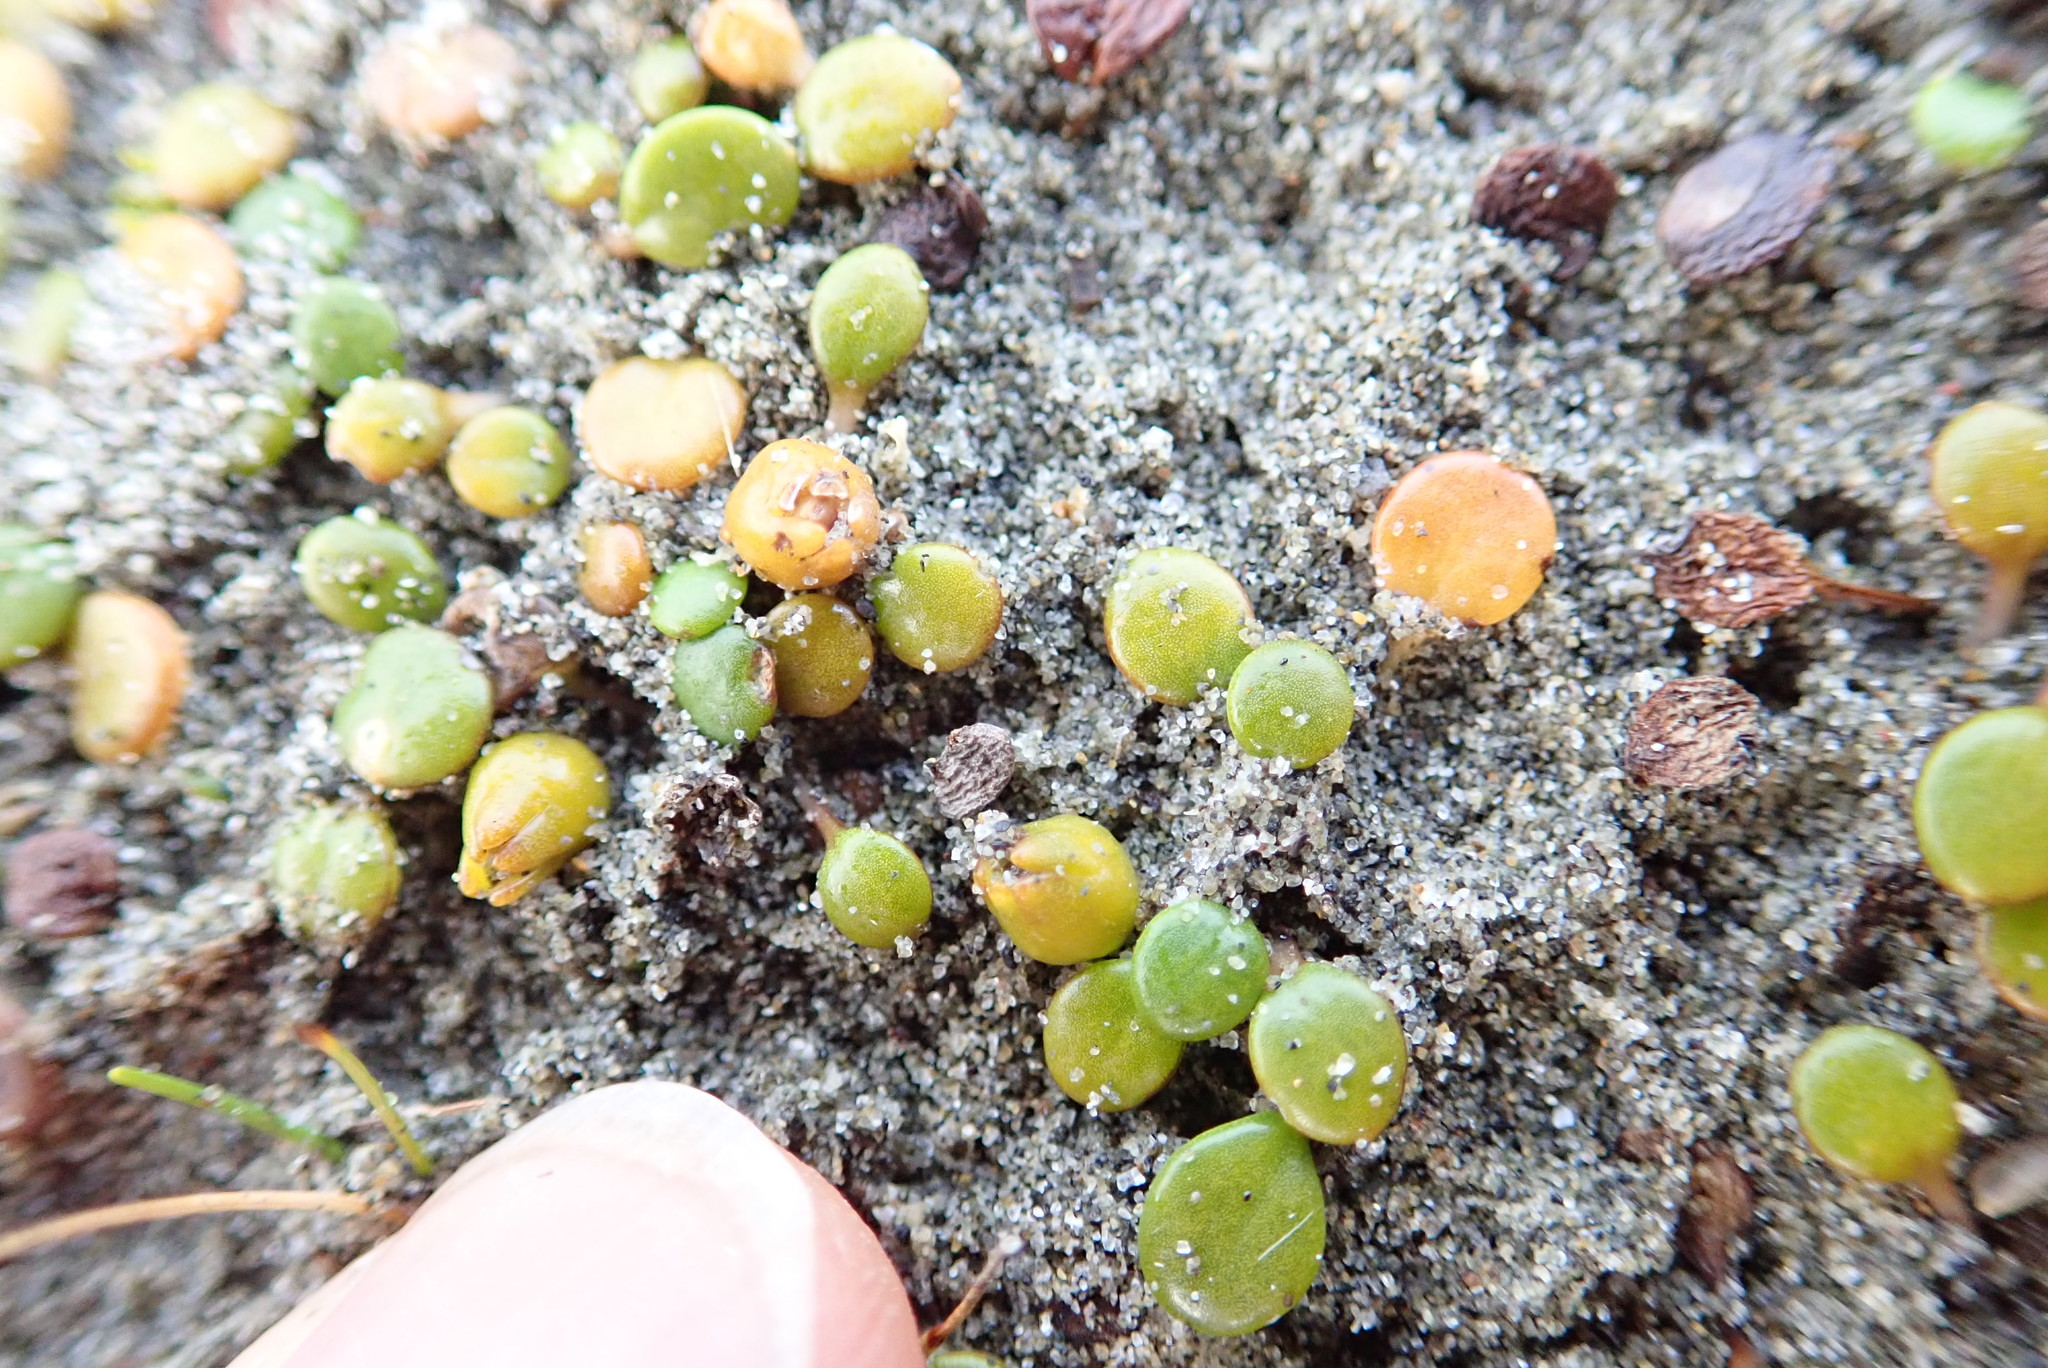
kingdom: Plantae
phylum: Tracheophyta
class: Magnoliopsida
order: Asterales
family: Goodeniaceae
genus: Goodenia
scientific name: Goodenia heenanii
